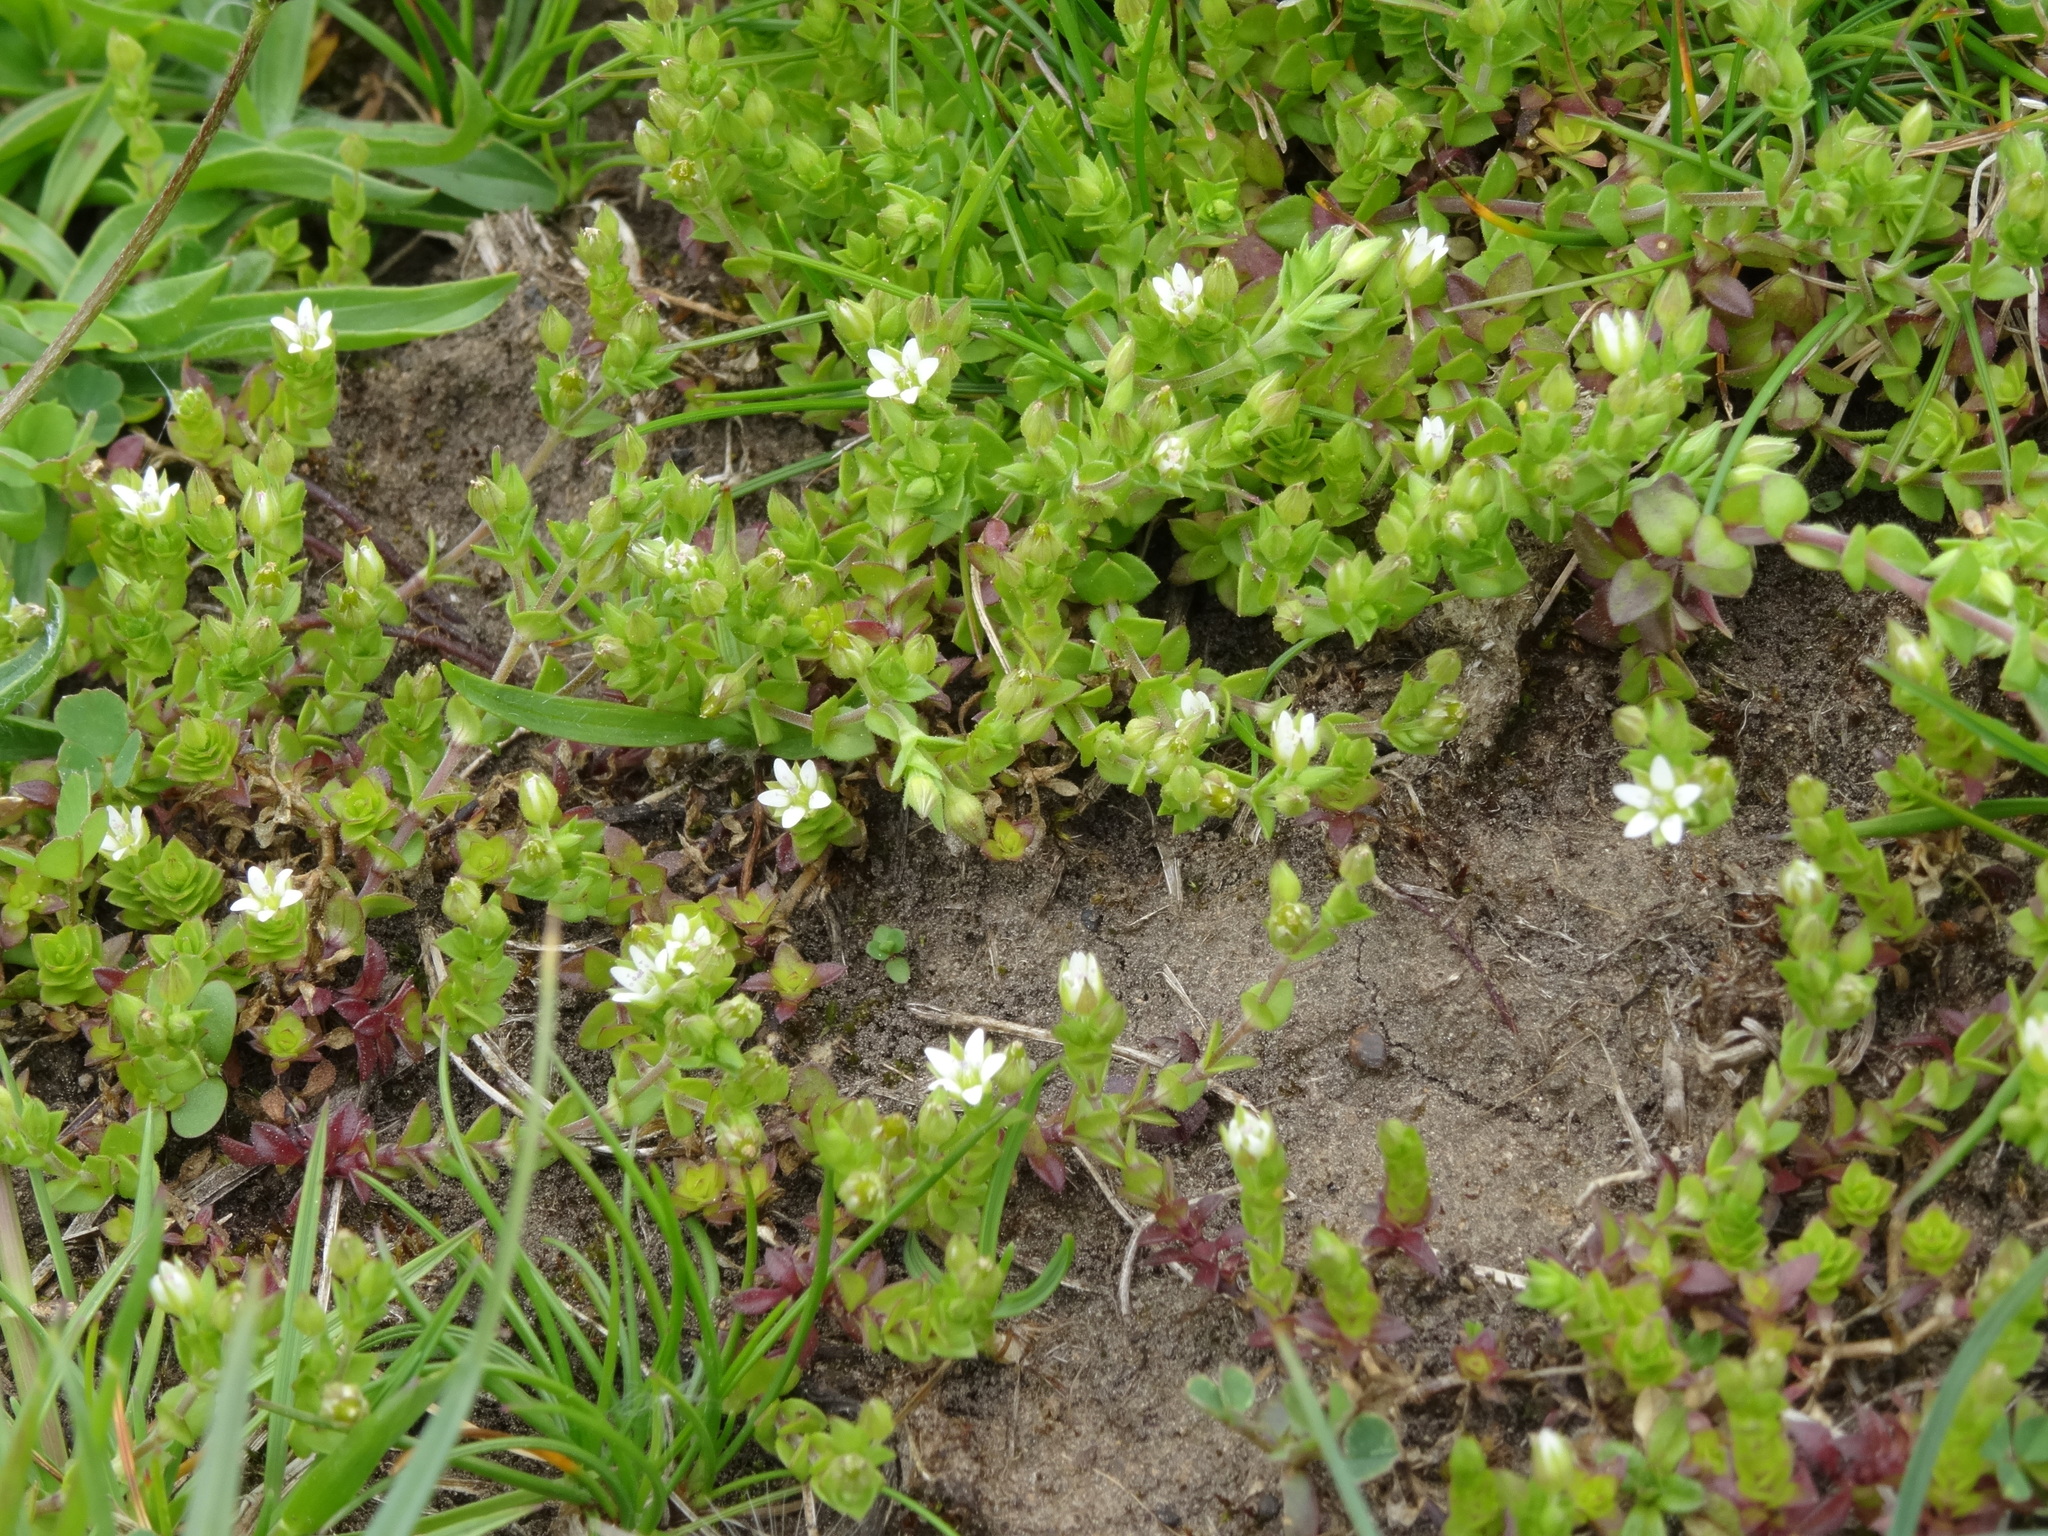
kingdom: Plantae
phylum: Tracheophyta
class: Magnoliopsida
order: Caryophyllales
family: Caryophyllaceae
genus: Arenaria
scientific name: Arenaria serpyllifolia
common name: Thyme-leaved sandwort
